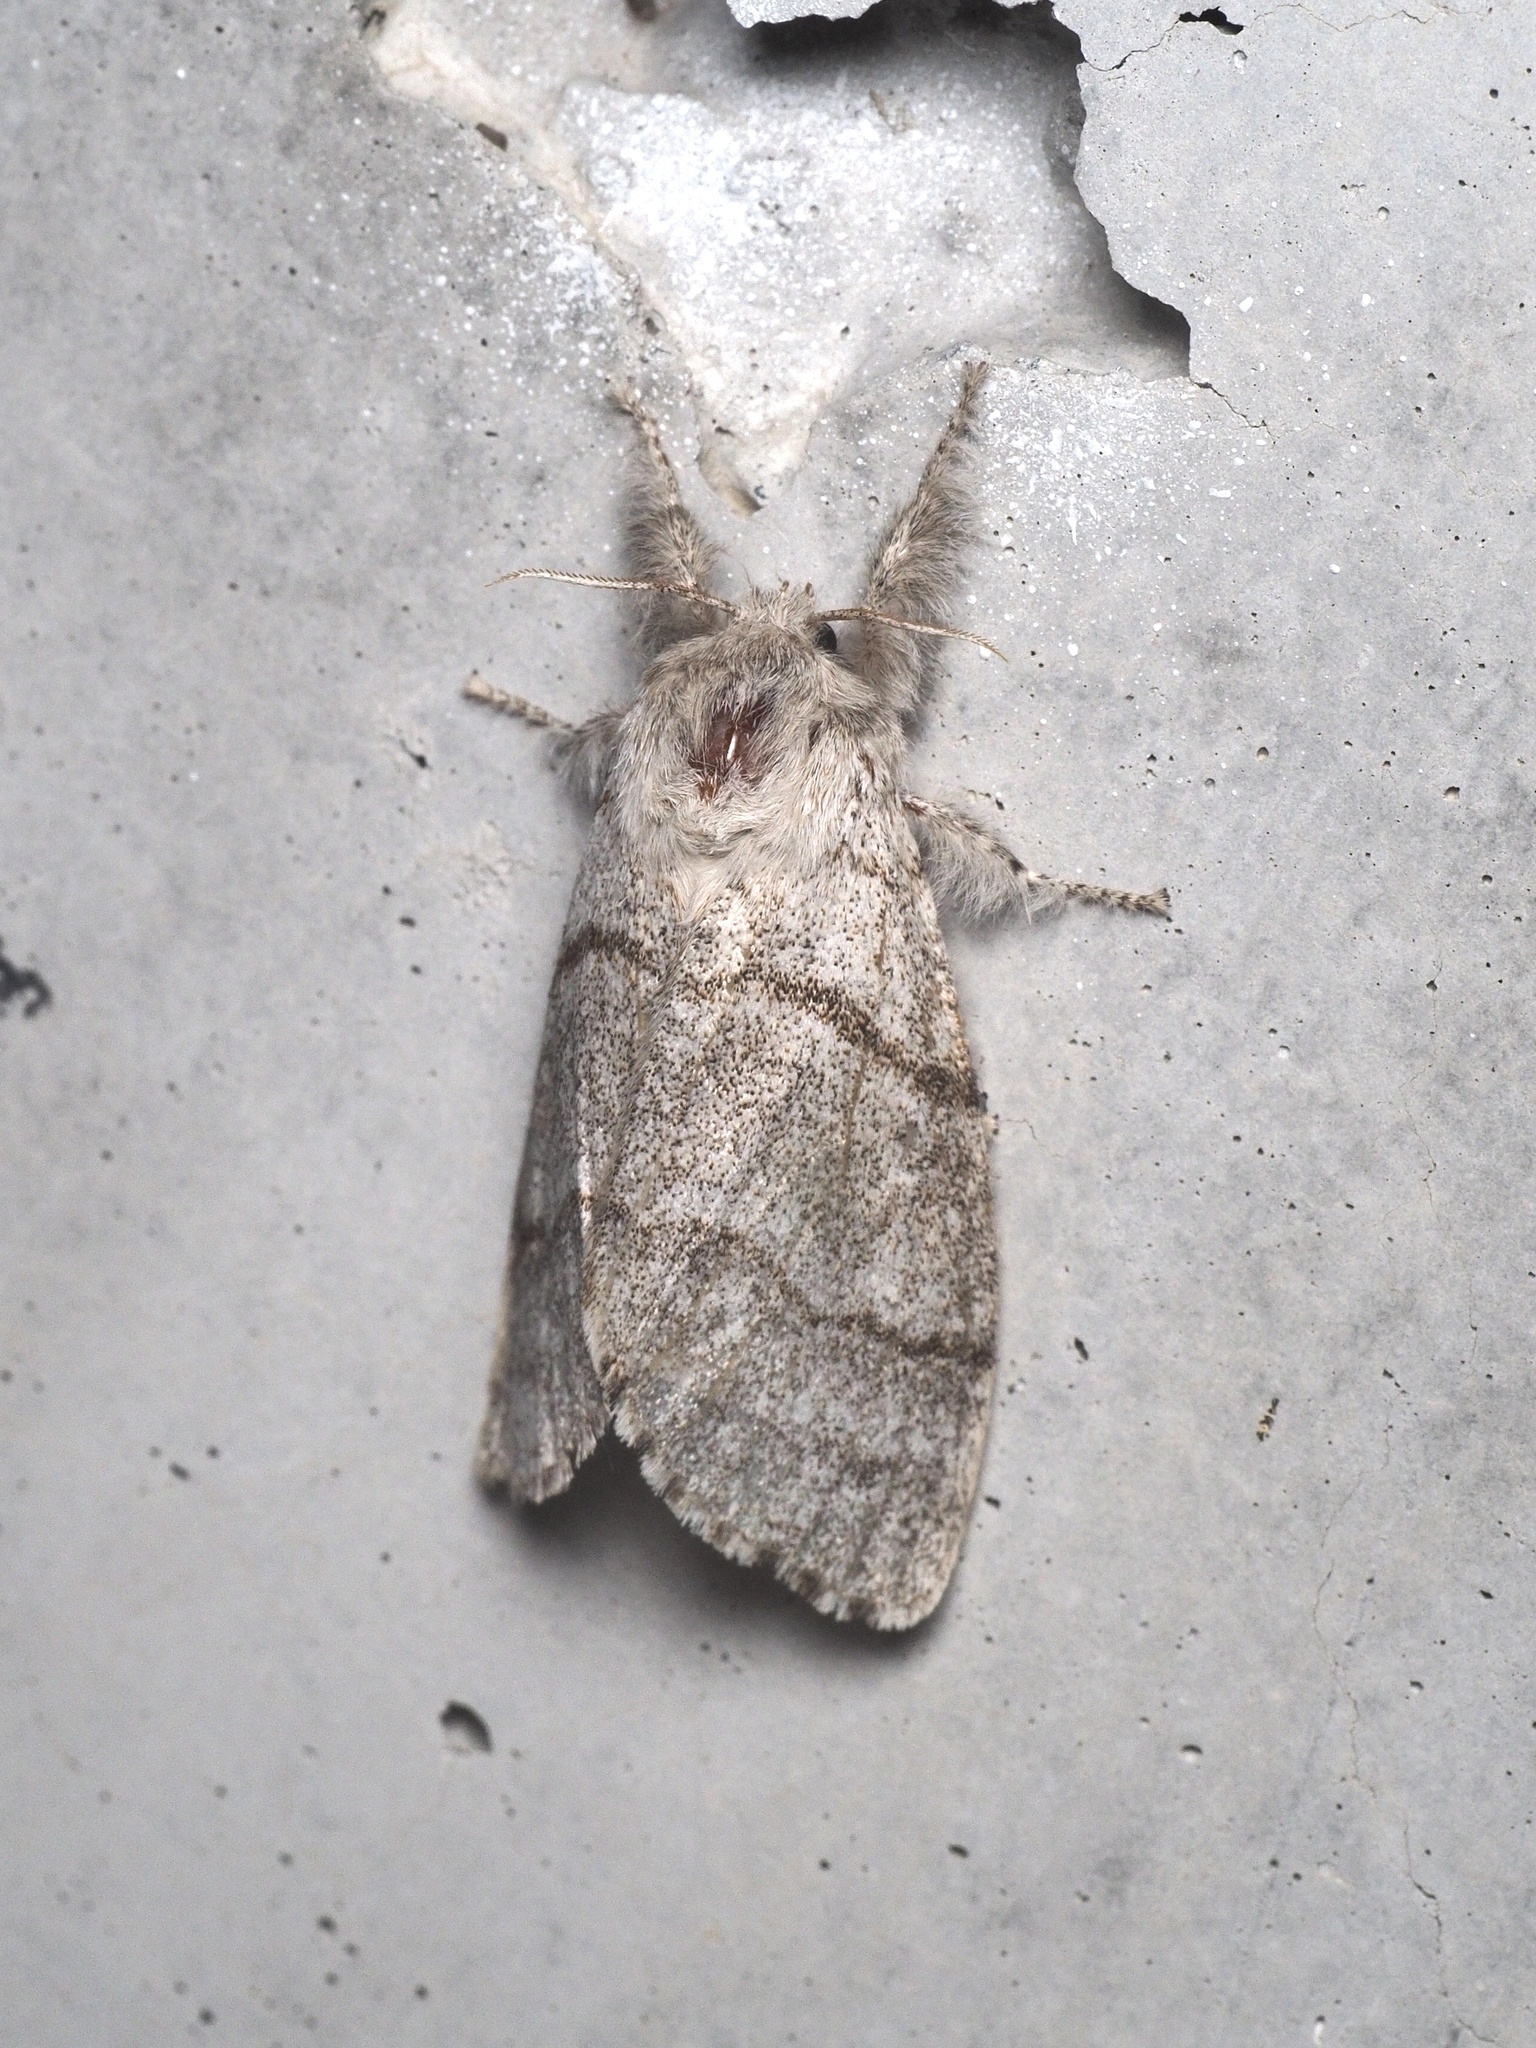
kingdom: Animalia
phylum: Arthropoda
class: Insecta
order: Lepidoptera
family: Erebidae
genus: Calliteara
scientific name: Calliteara pudibunda
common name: Pale tussock
